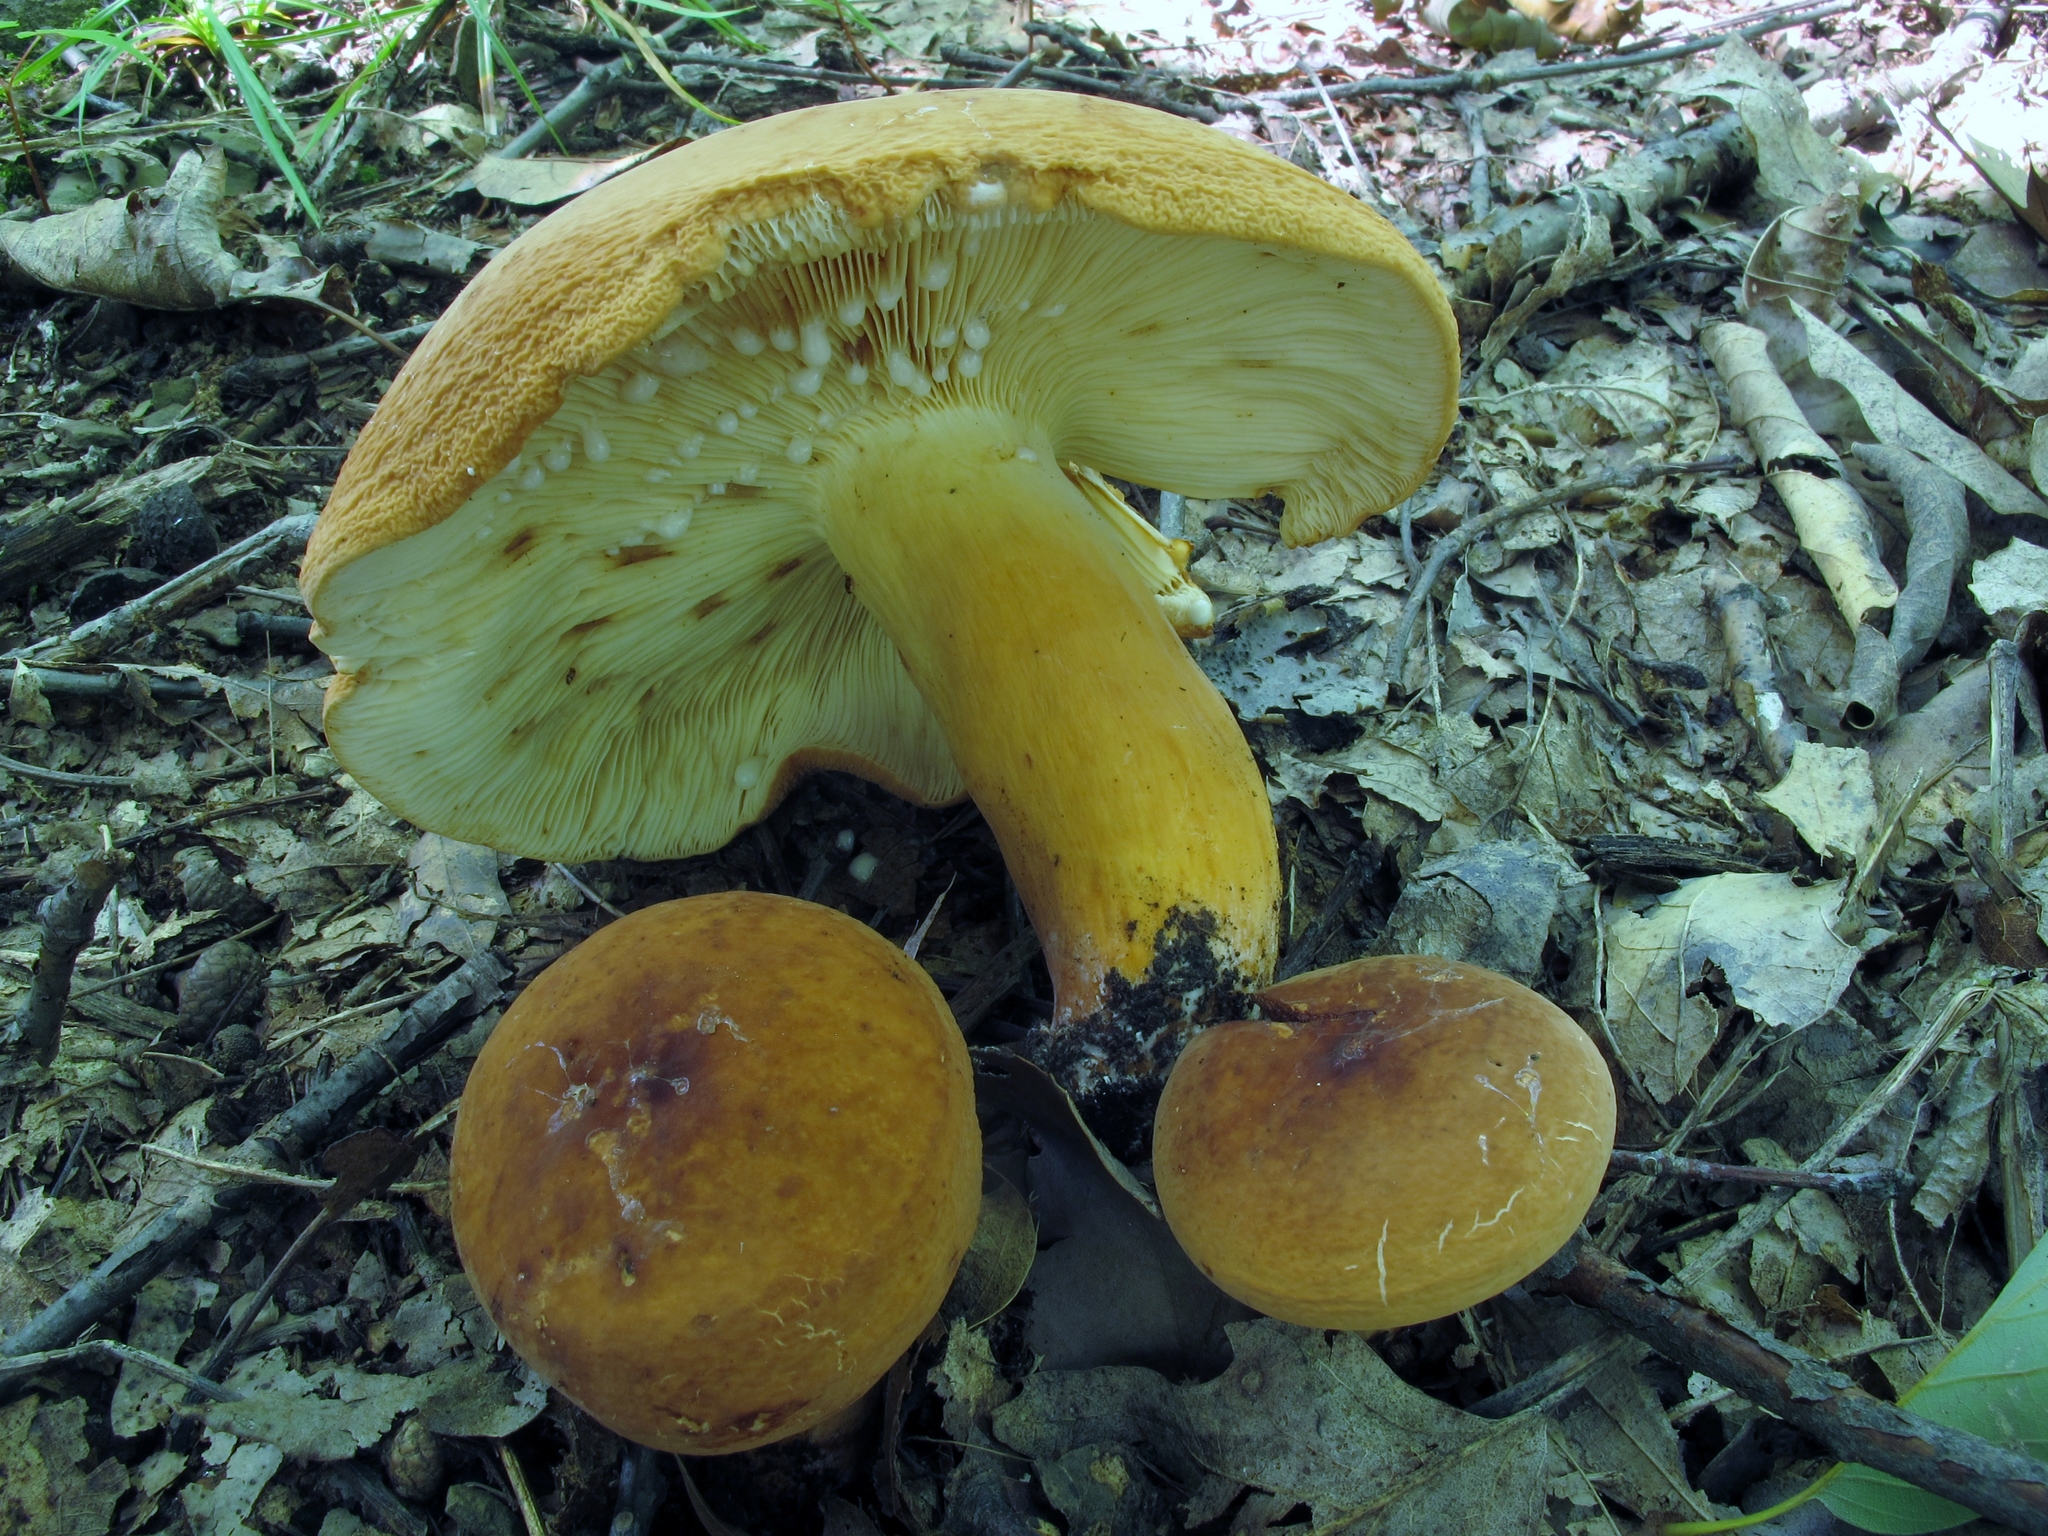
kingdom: Fungi
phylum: Basidiomycota
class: Agaricomycetes
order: Russulales
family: Russulaceae
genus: Lactifluus
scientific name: Lactifluus volemus
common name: Fishy milkcap
